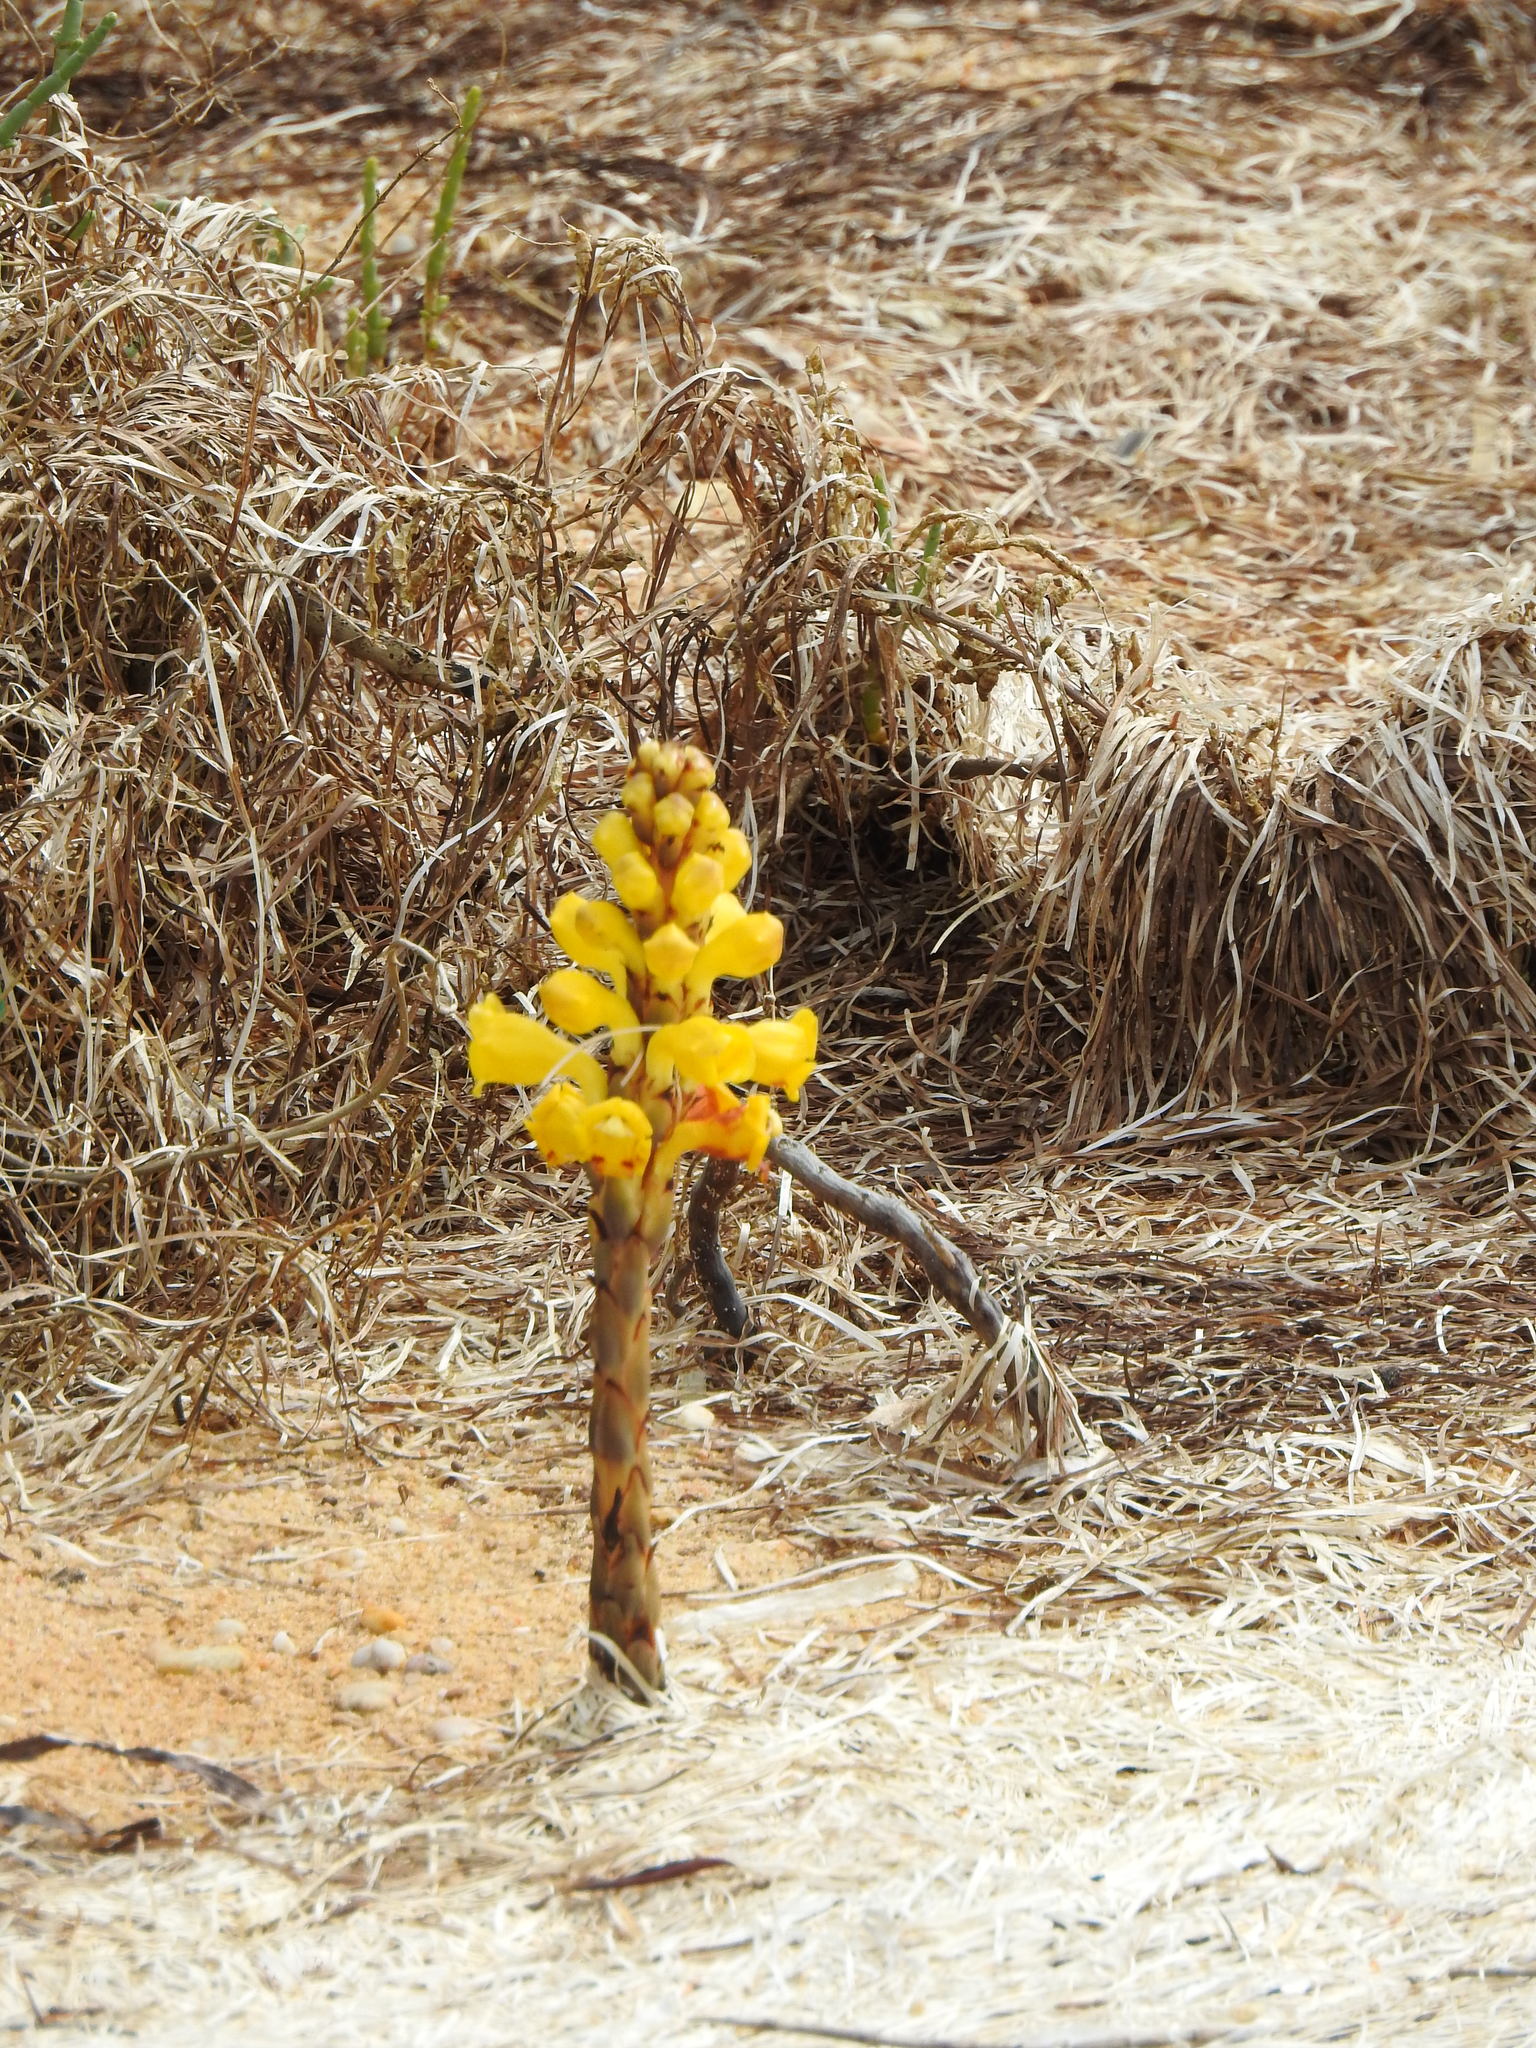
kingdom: Plantae
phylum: Tracheophyta
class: Magnoliopsida
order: Lamiales
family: Orobanchaceae
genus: Cistanche
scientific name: Cistanche phelypaea
